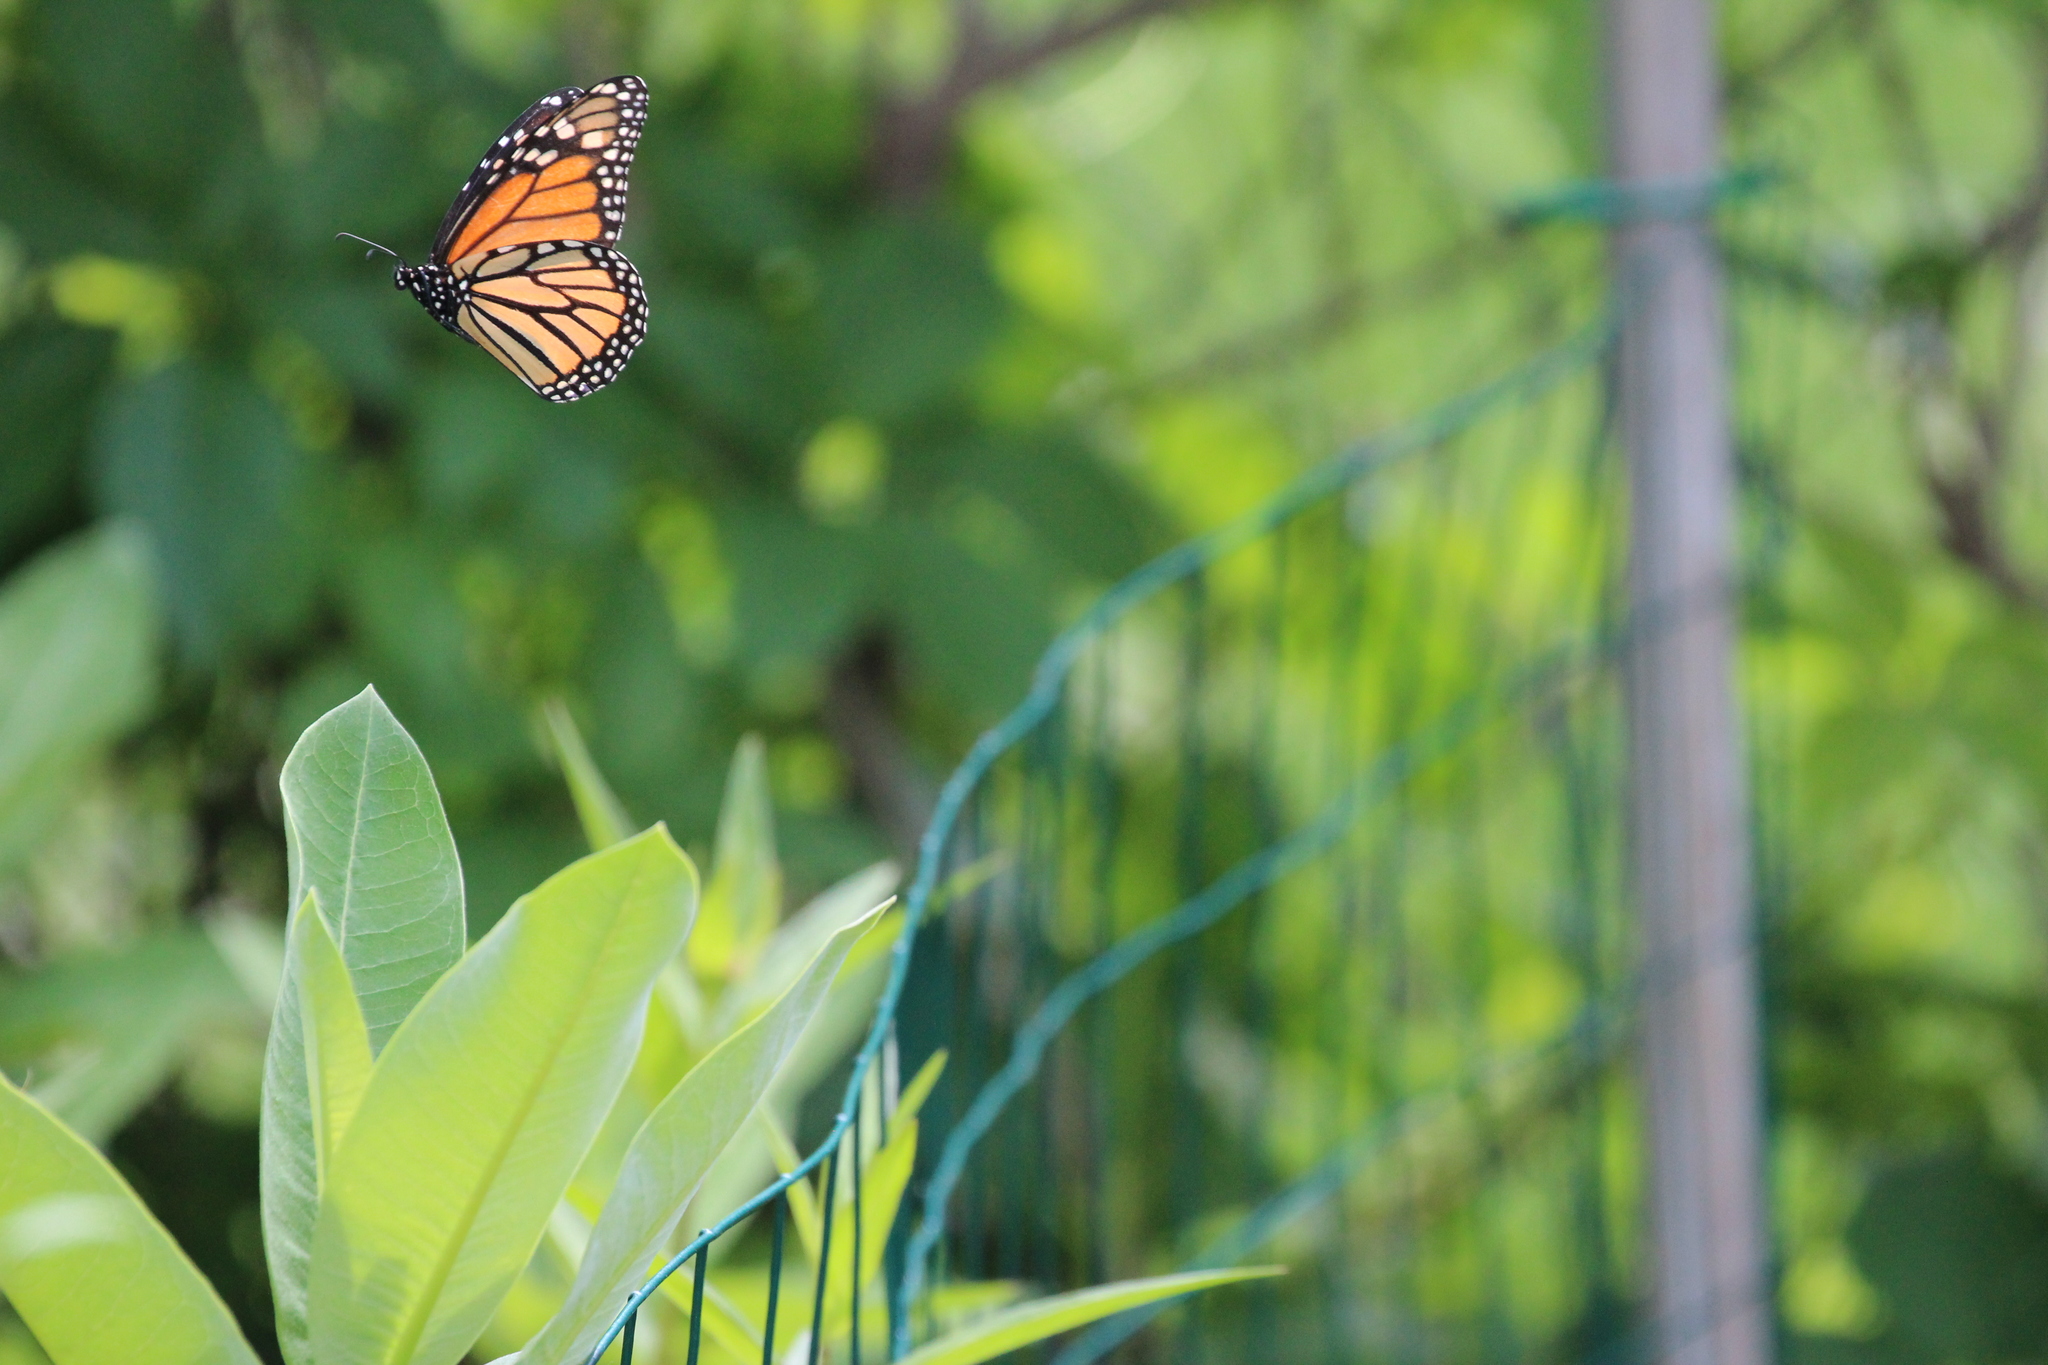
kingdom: Animalia
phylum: Arthropoda
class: Insecta
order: Lepidoptera
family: Nymphalidae
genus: Danaus
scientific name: Danaus plexippus
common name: Monarch
